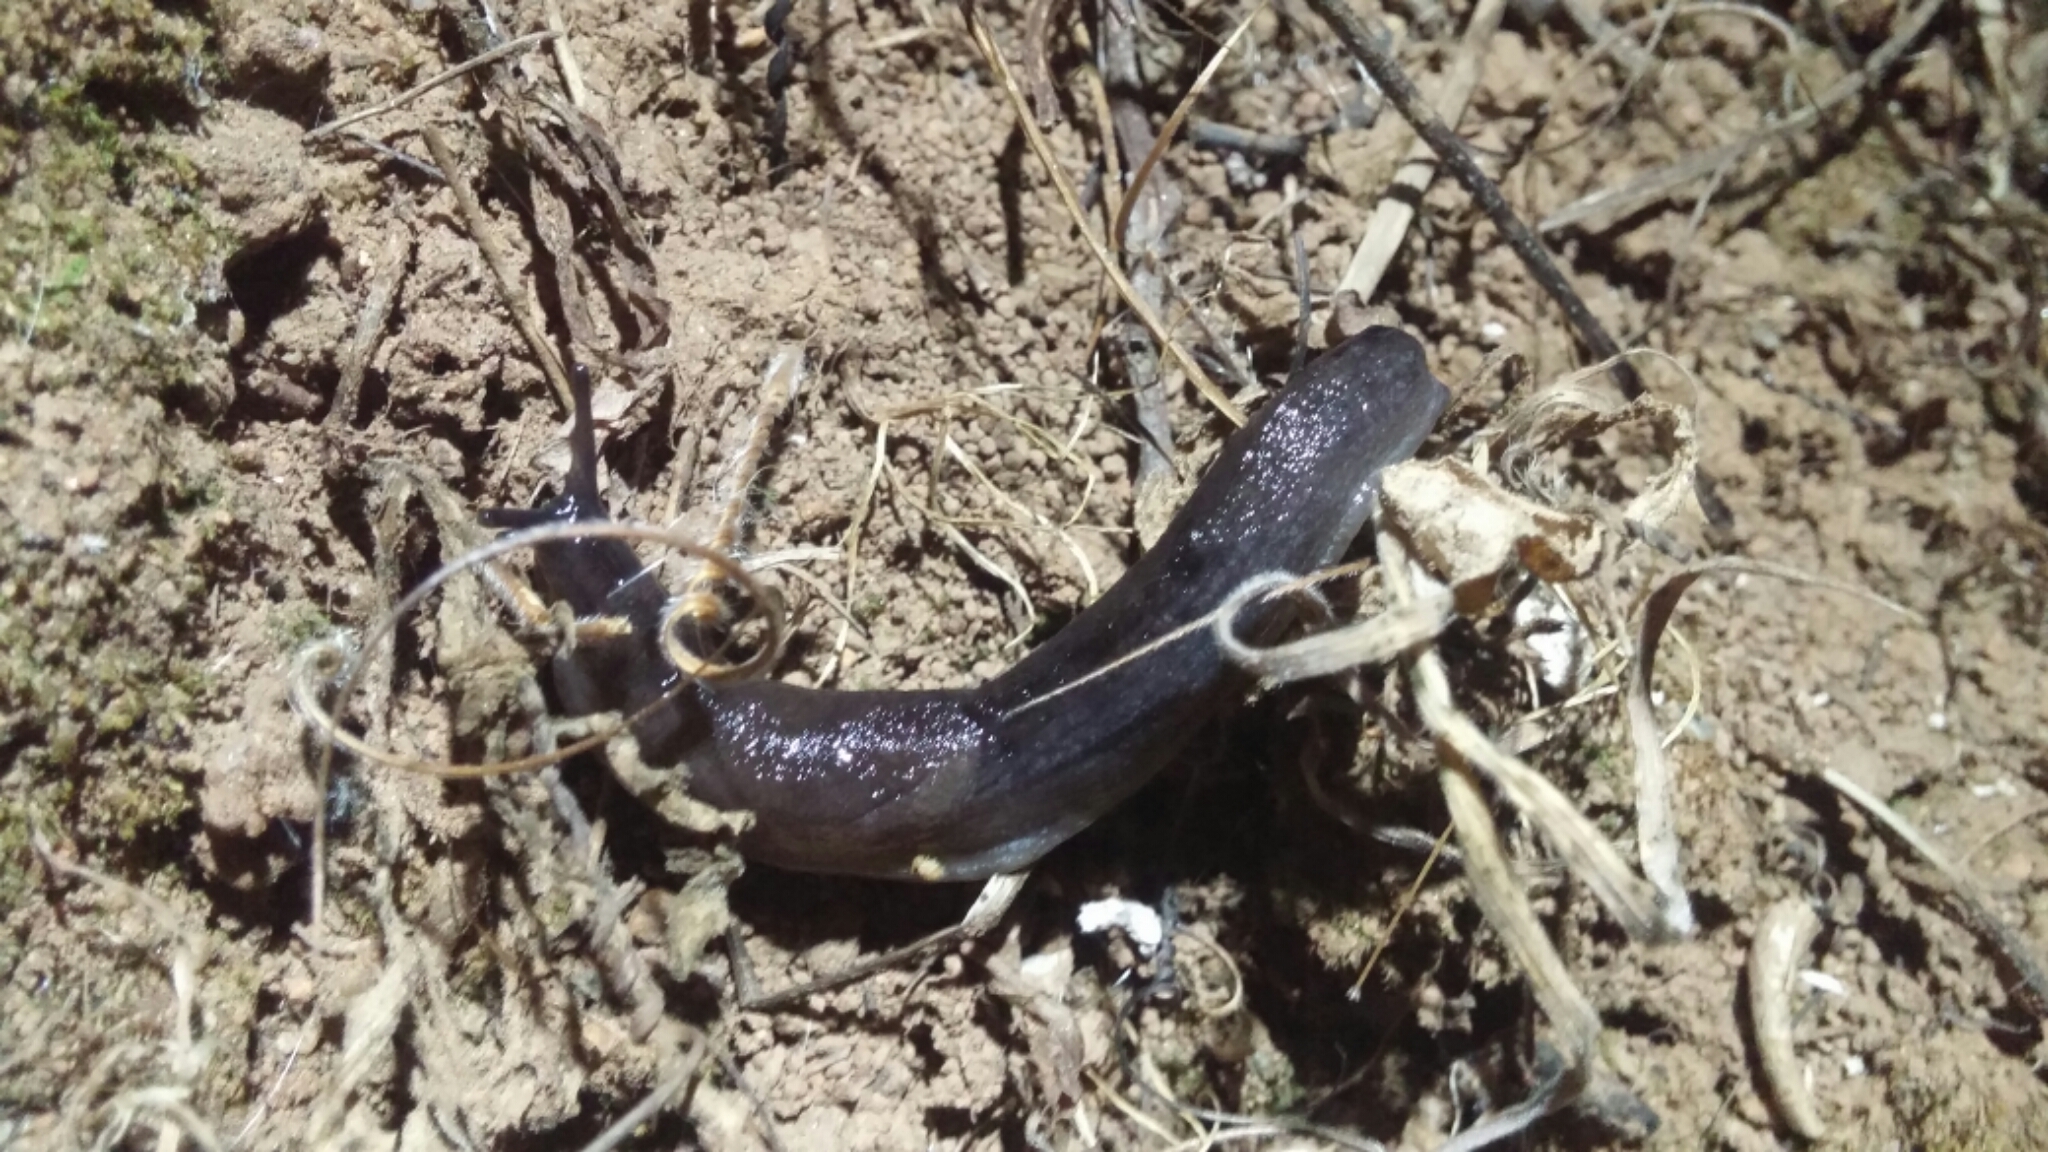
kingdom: Animalia
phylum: Mollusca
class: Gastropoda
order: Stylommatophora
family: Milacidae
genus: Milax
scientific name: Milax gagates
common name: Greenhouse slug
